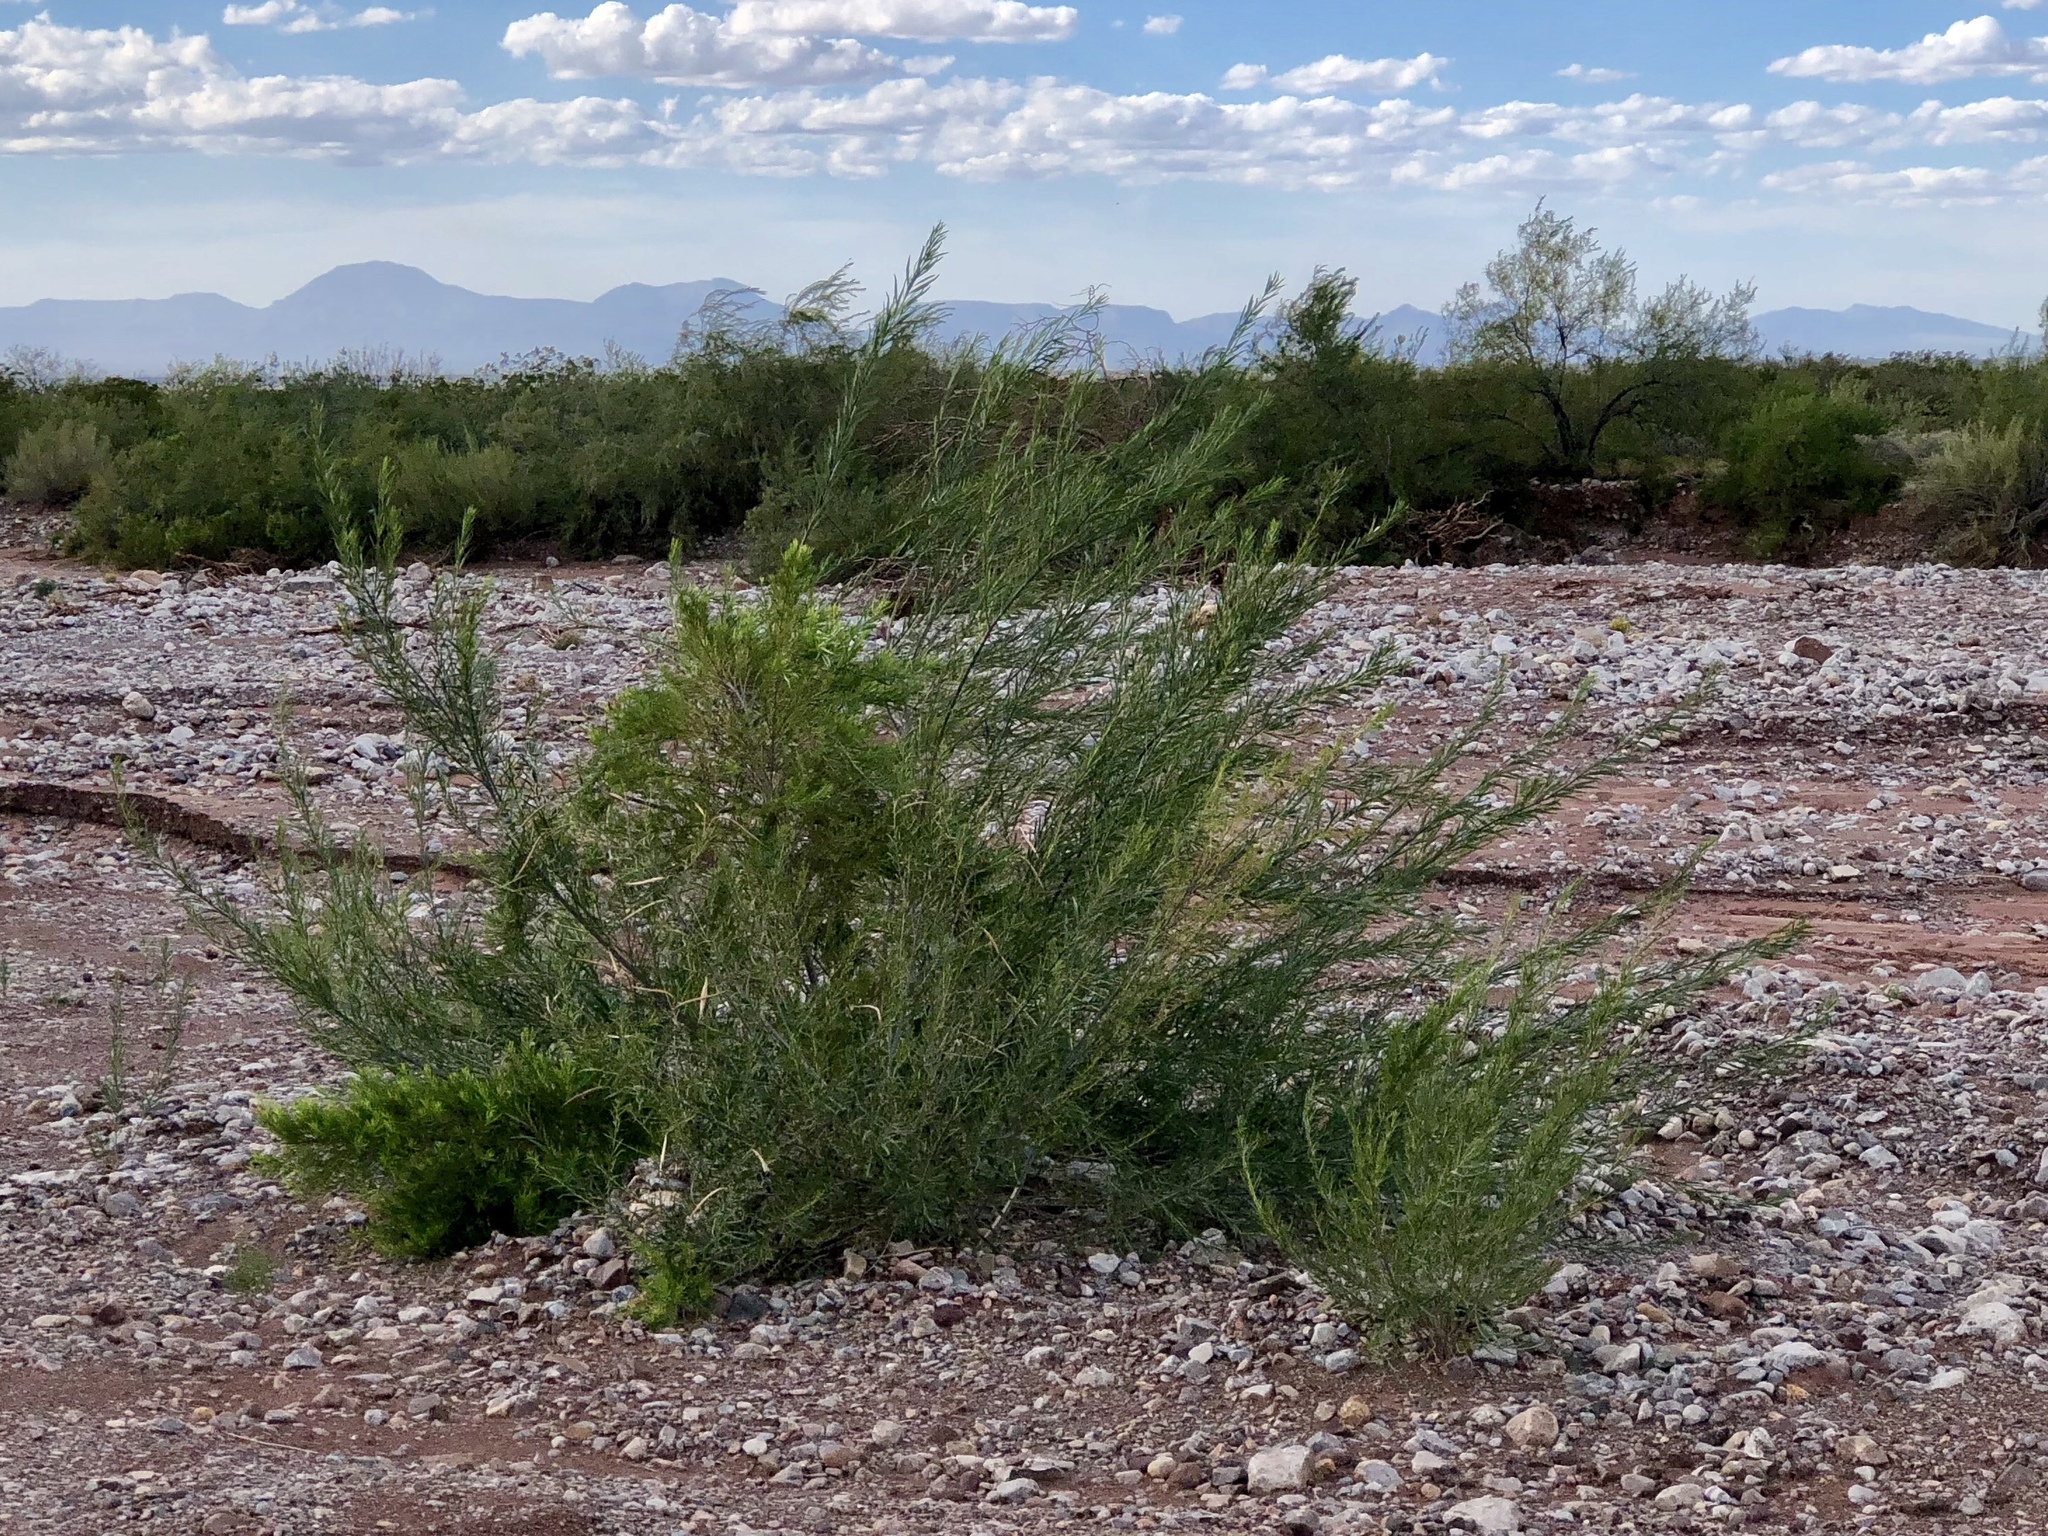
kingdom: Plantae
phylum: Tracheophyta
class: Magnoliopsida
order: Lamiales
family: Bignoniaceae
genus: Chilopsis
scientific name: Chilopsis linearis
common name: Desert-willow
